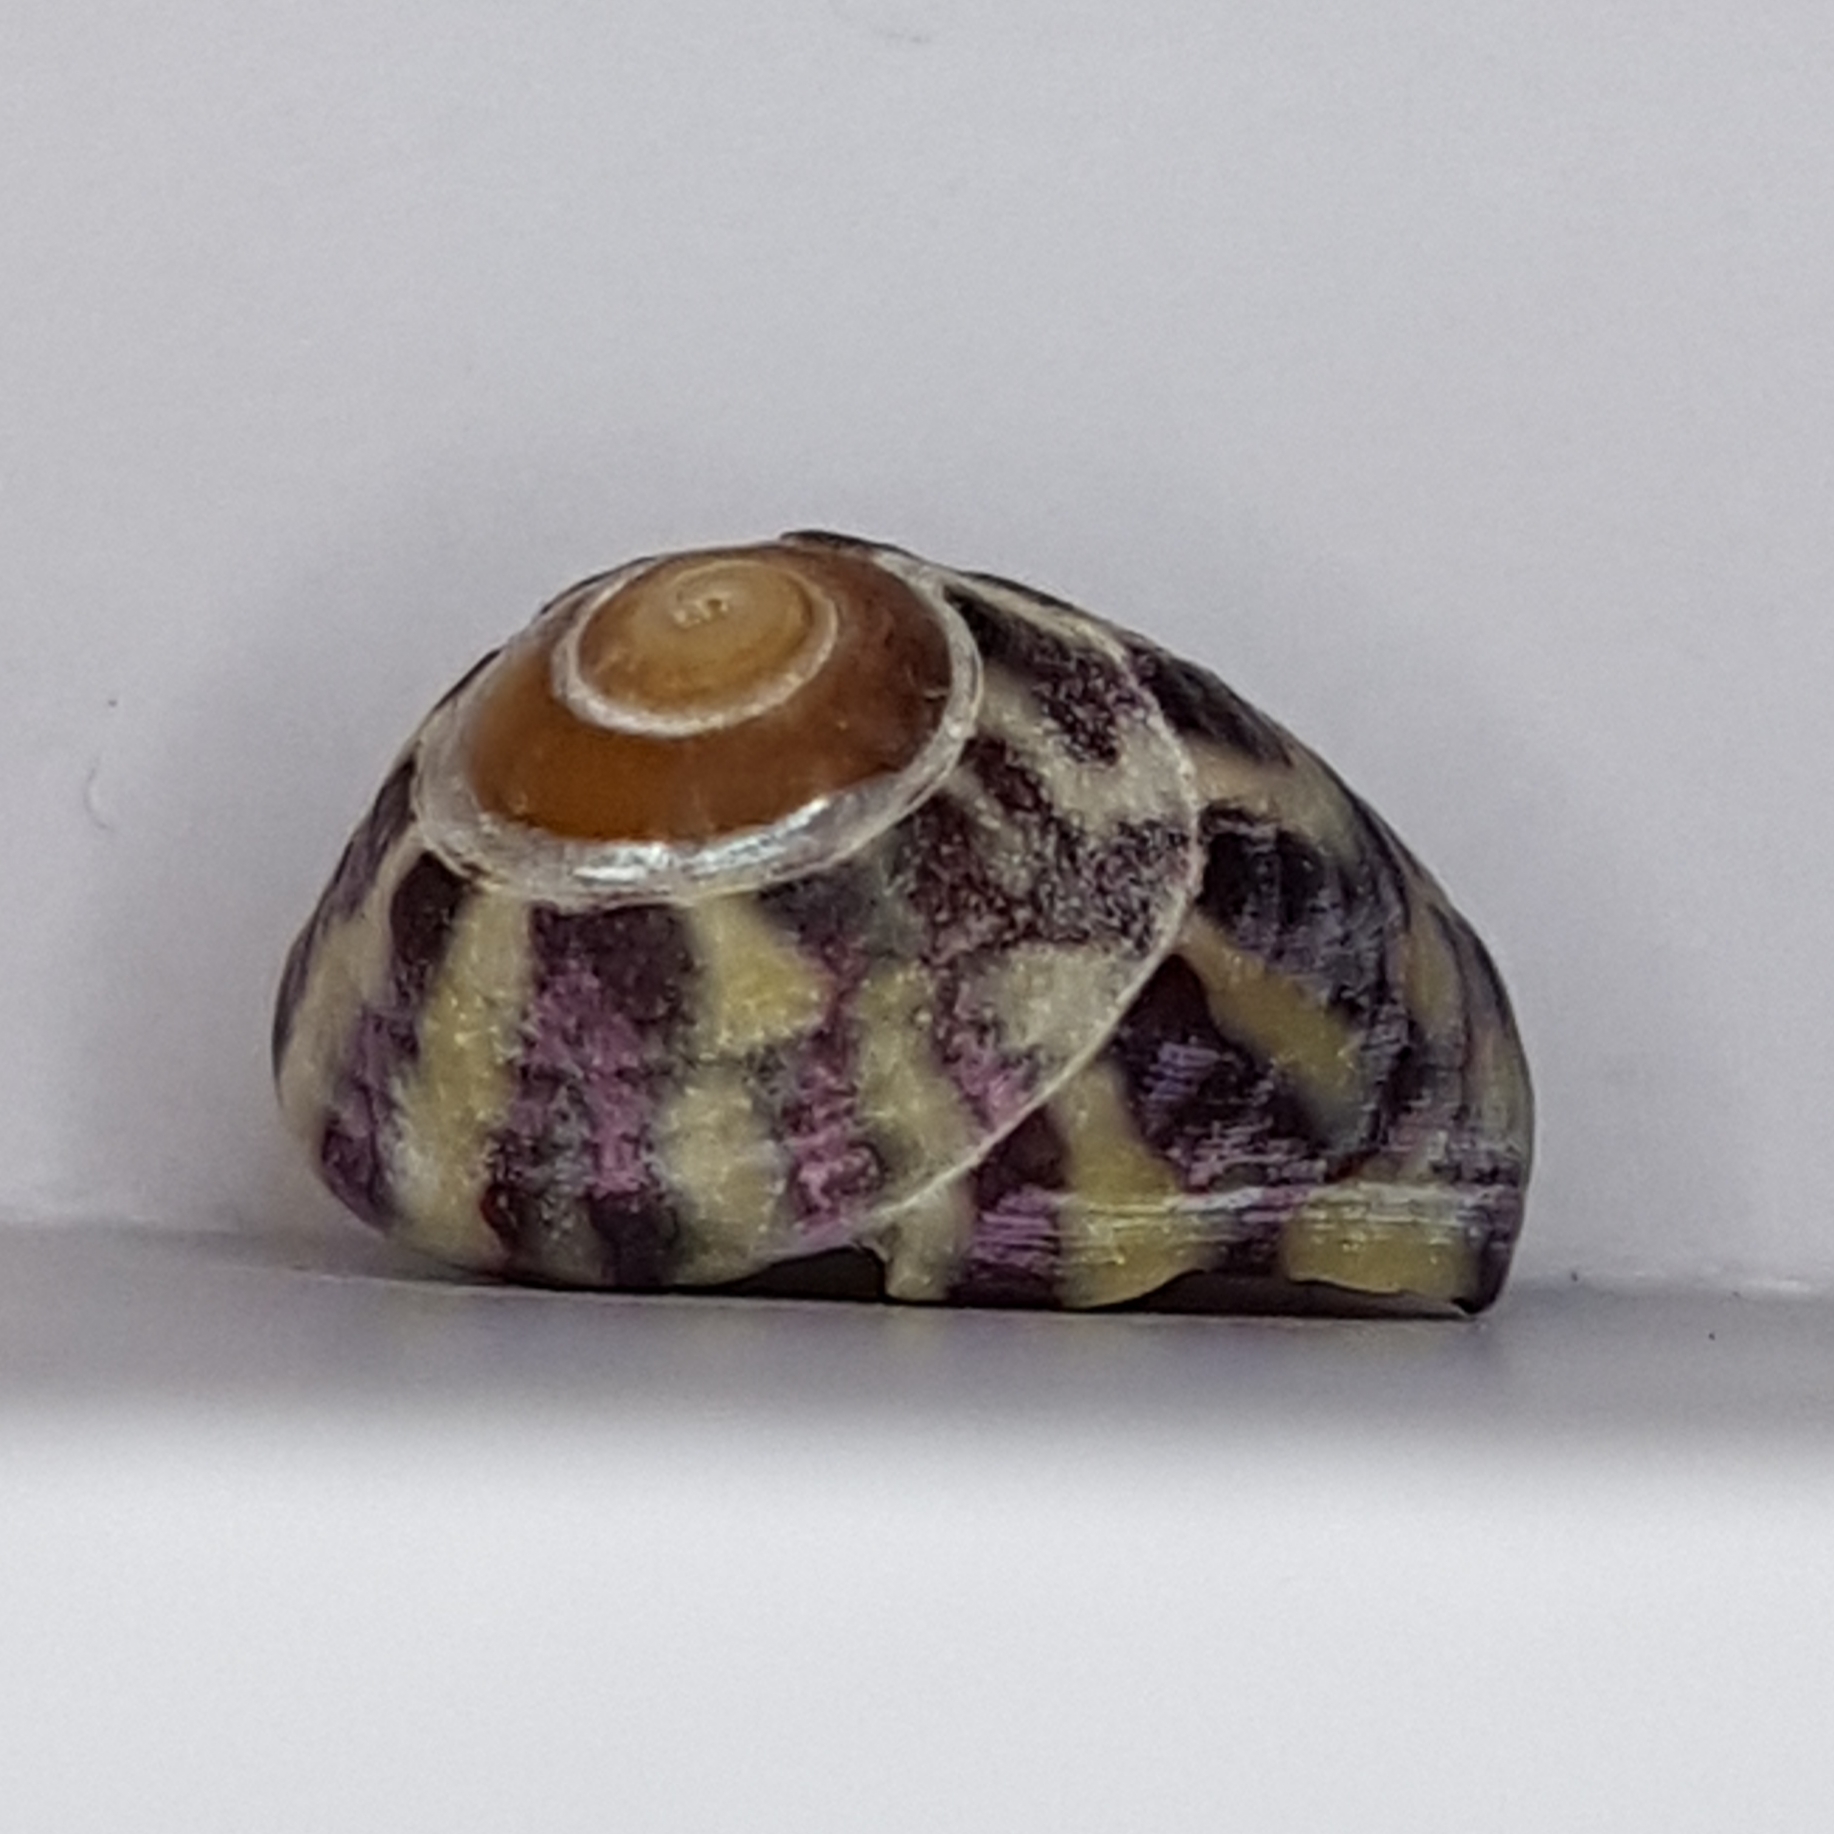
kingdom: Animalia
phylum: Mollusca
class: Gastropoda
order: Trochida
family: Trochidae
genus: Steromphala
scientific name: Steromphala umbilicalis
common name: Flat top shell
